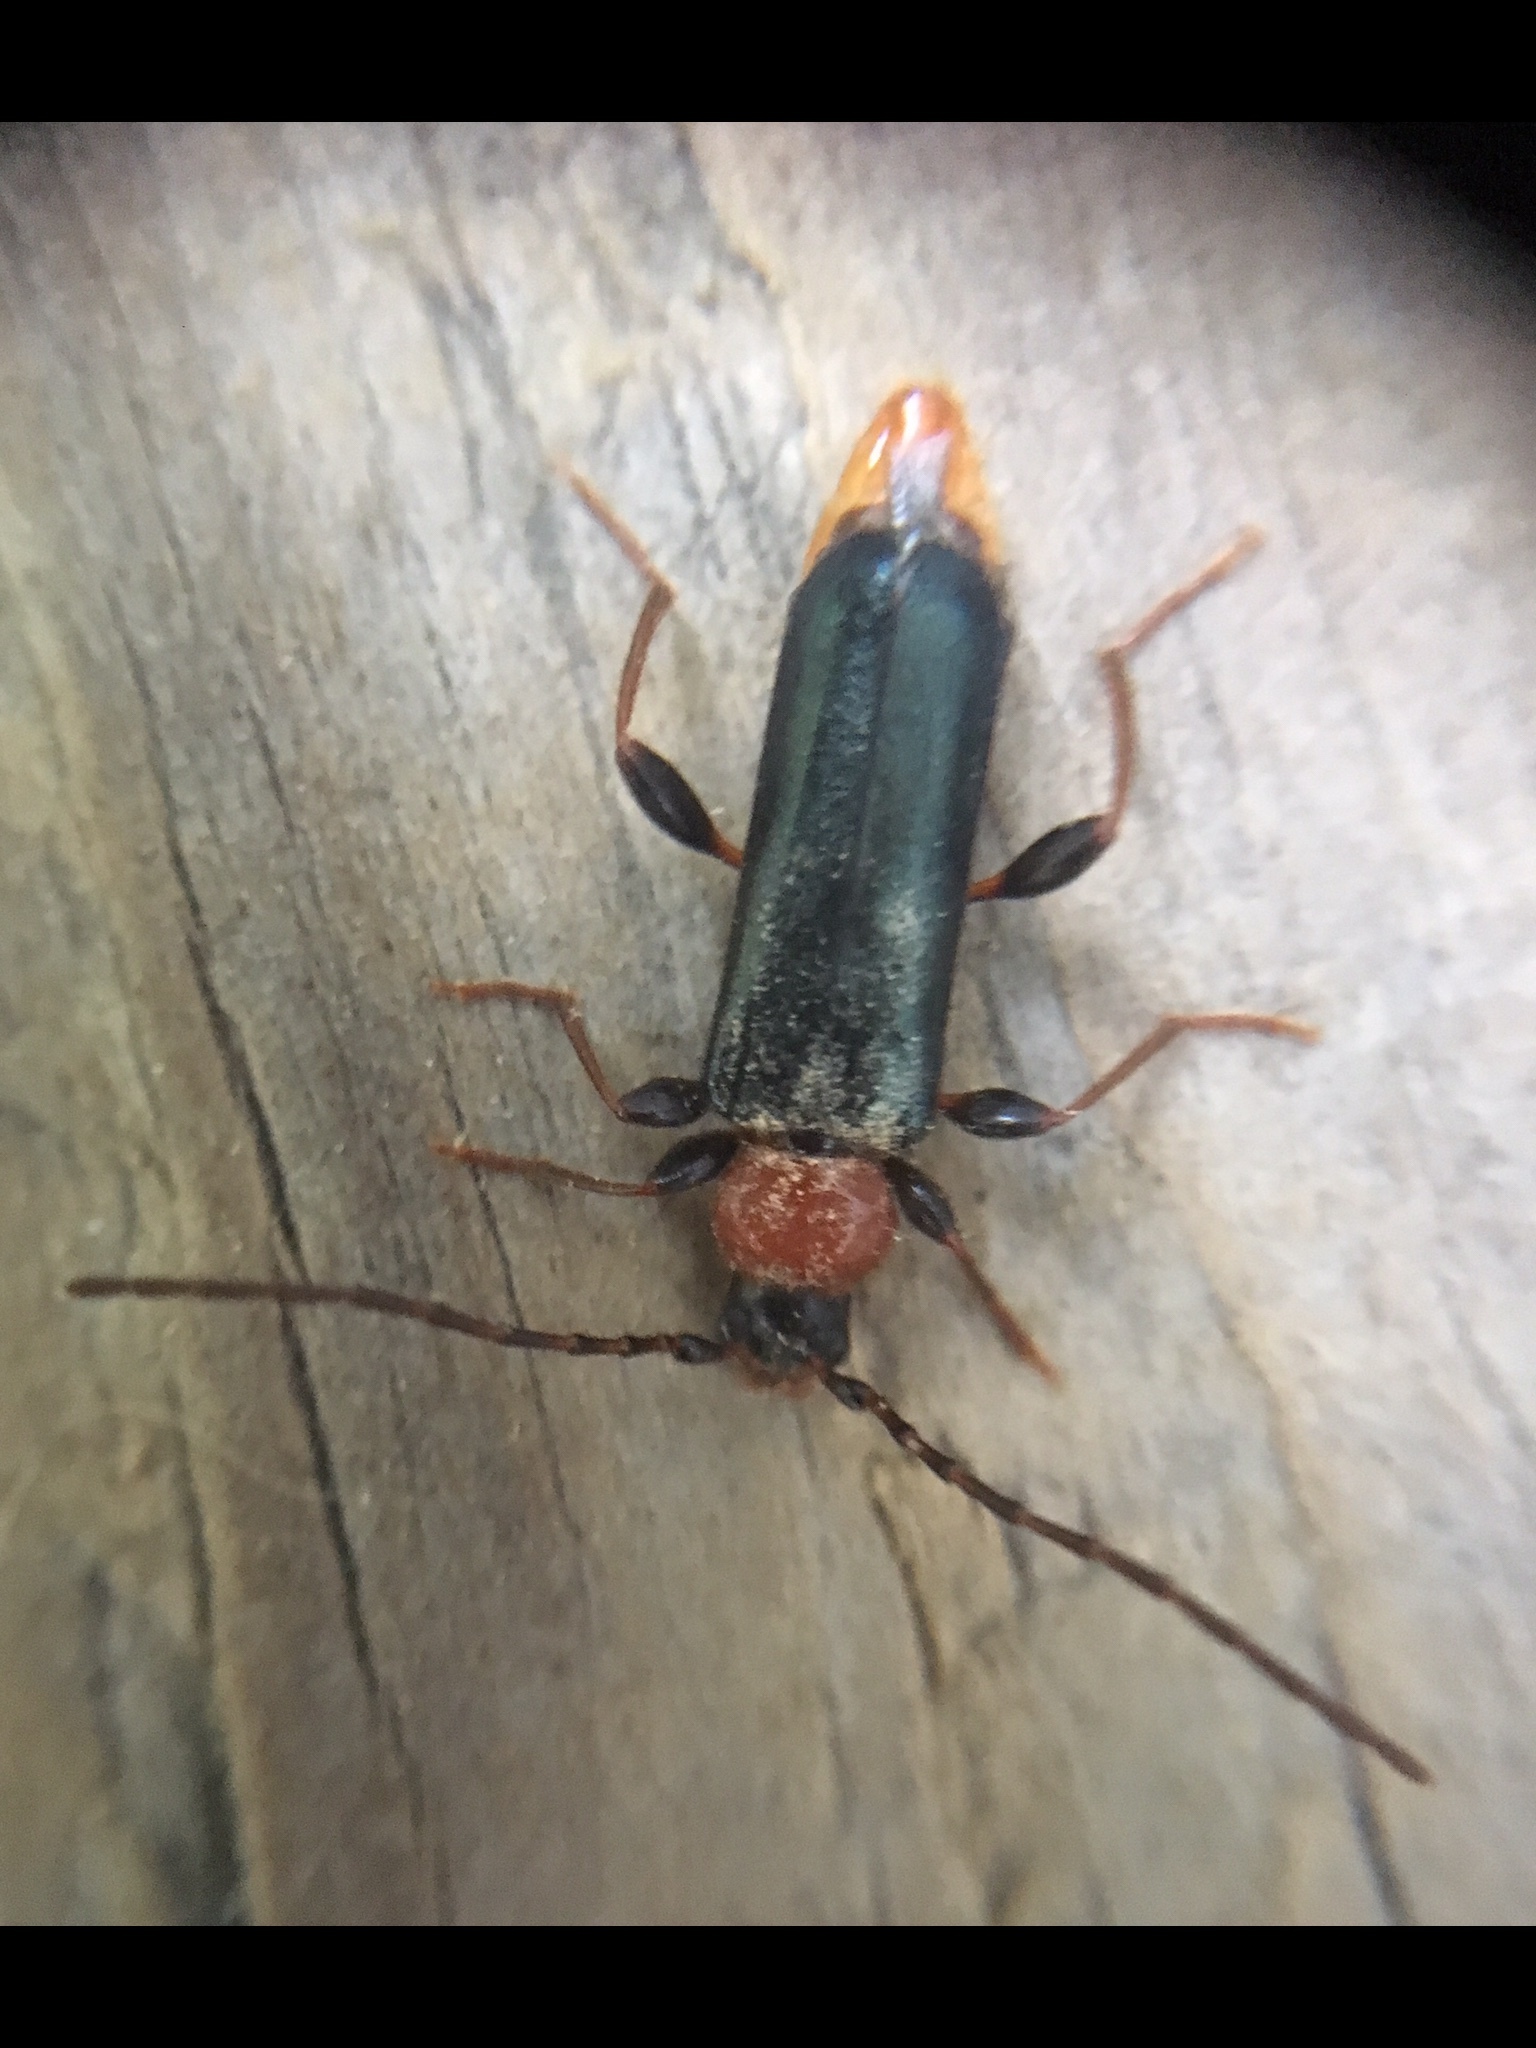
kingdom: Animalia
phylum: Arthropoda
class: Insecta
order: Coleoptera
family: Cerambycidae
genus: Phymatodes
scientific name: Phymatodes testaceus
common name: Long-horned beetle
